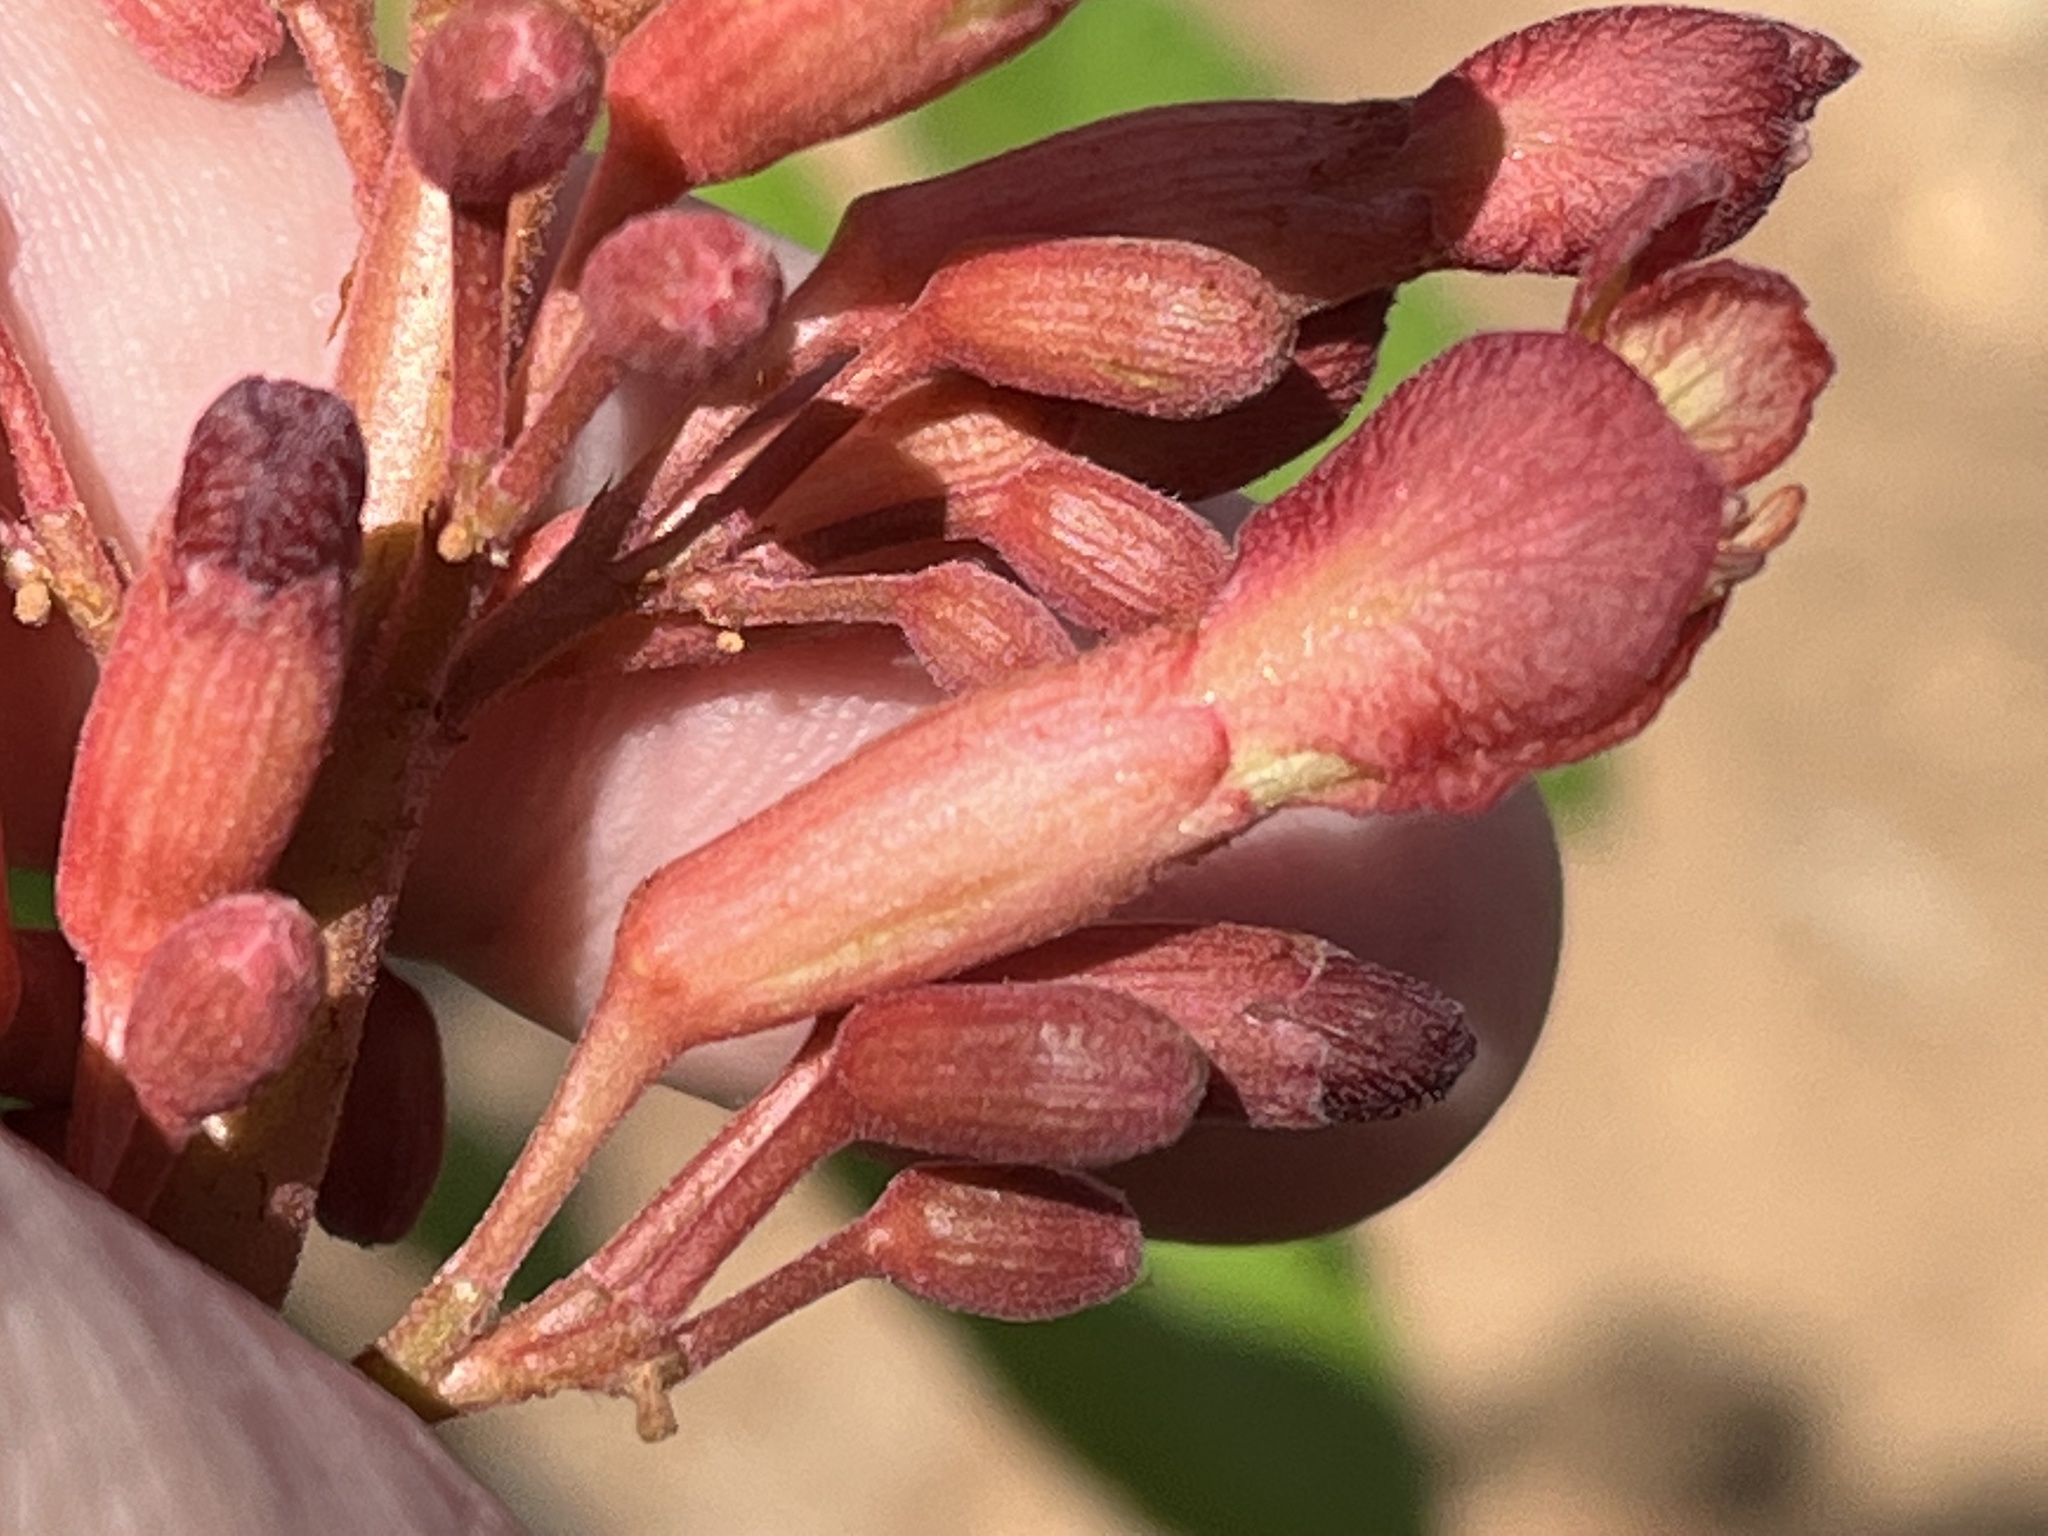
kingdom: Plantae
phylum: Tracheophyta
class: Magnoliopsida
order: Sapindales
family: Sapindaceae
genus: Aesculus
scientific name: Aesculus pavia
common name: Red buckeye
